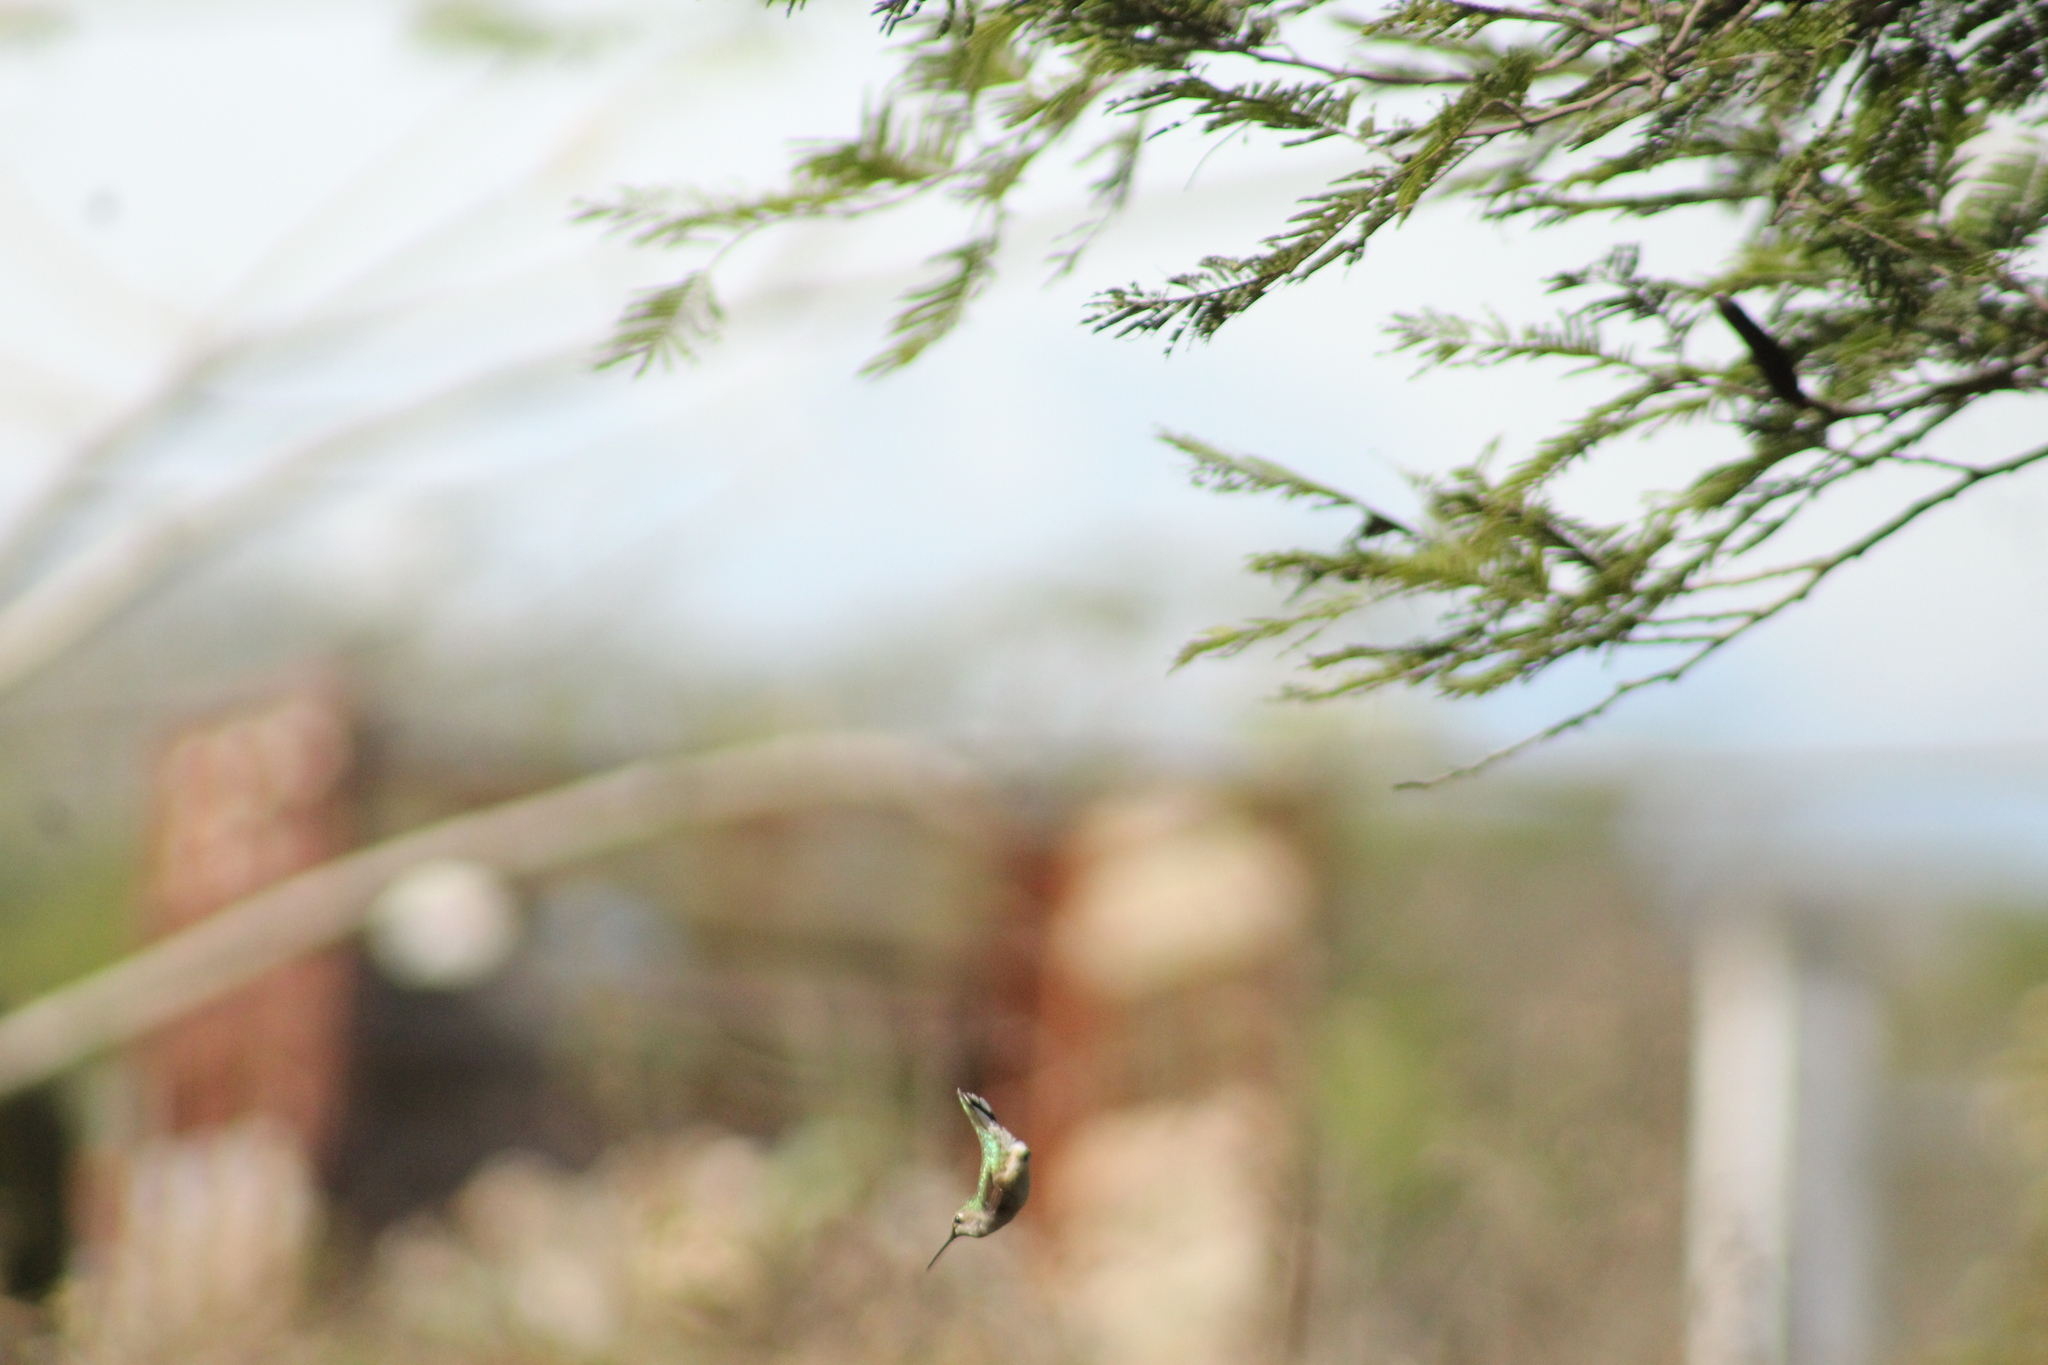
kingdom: Animalia
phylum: Chordata
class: Aves
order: Apodiformes
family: Trochilidae
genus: Archilochus
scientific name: Archilochus colubris
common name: Ruby-throated hummingbird
